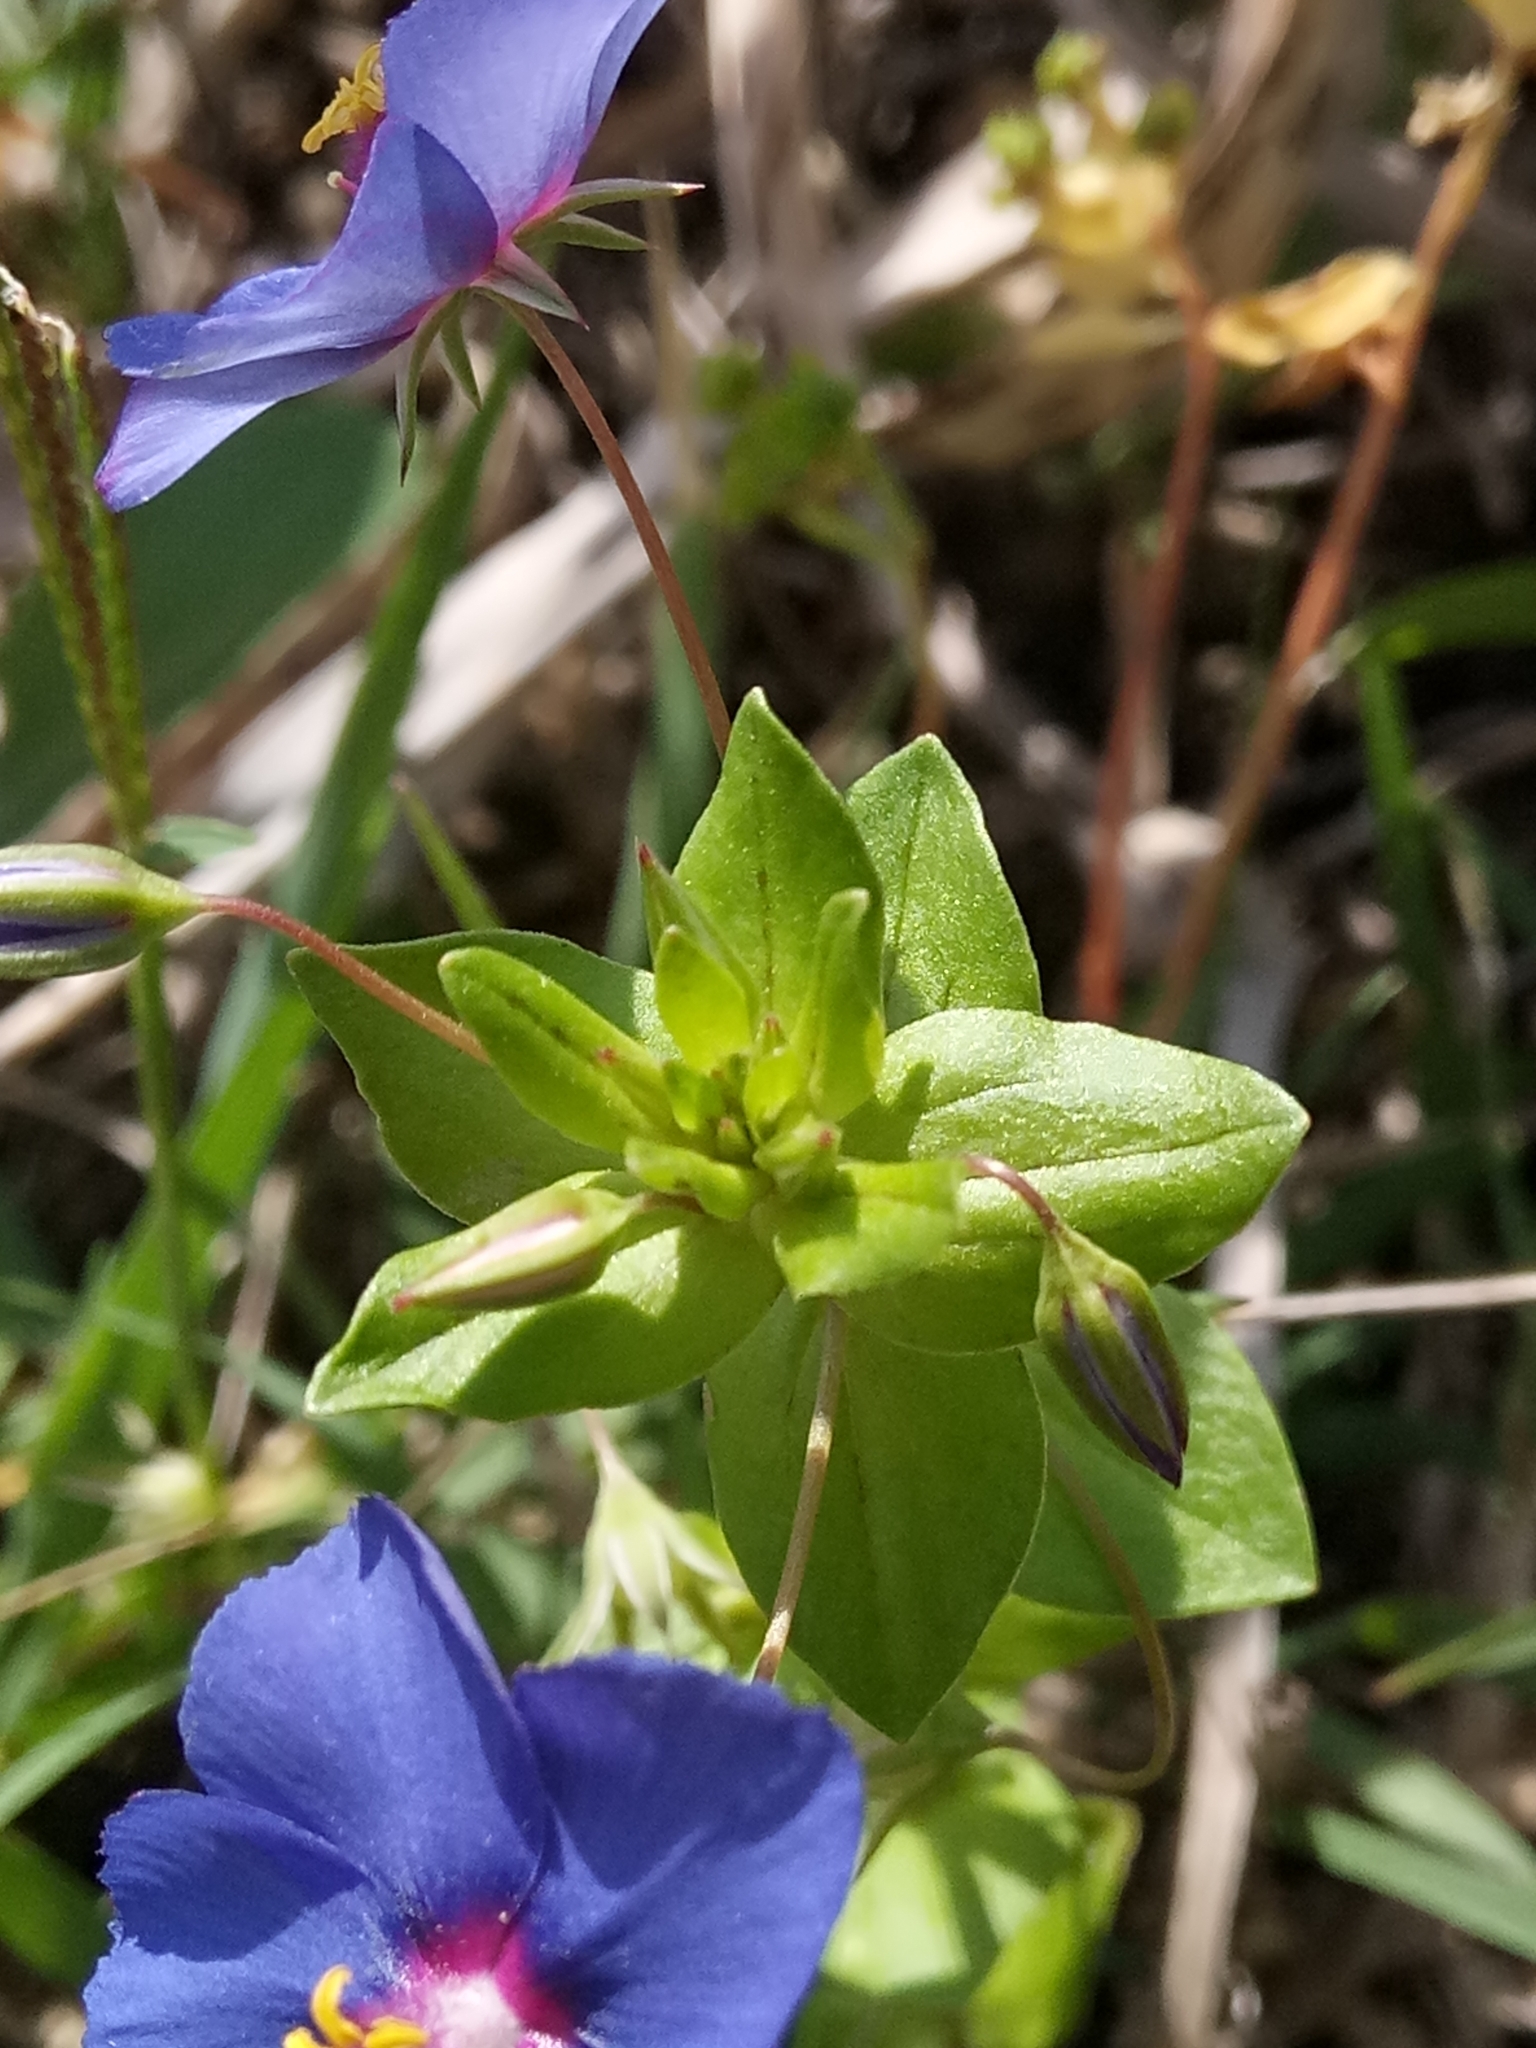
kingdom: Plantae
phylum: Tracheophyta
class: Magnoliopsida
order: Ericales
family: Primulaceae
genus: Lysimachia
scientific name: Lysimachia arvensis
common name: Scarlet pimpernel
